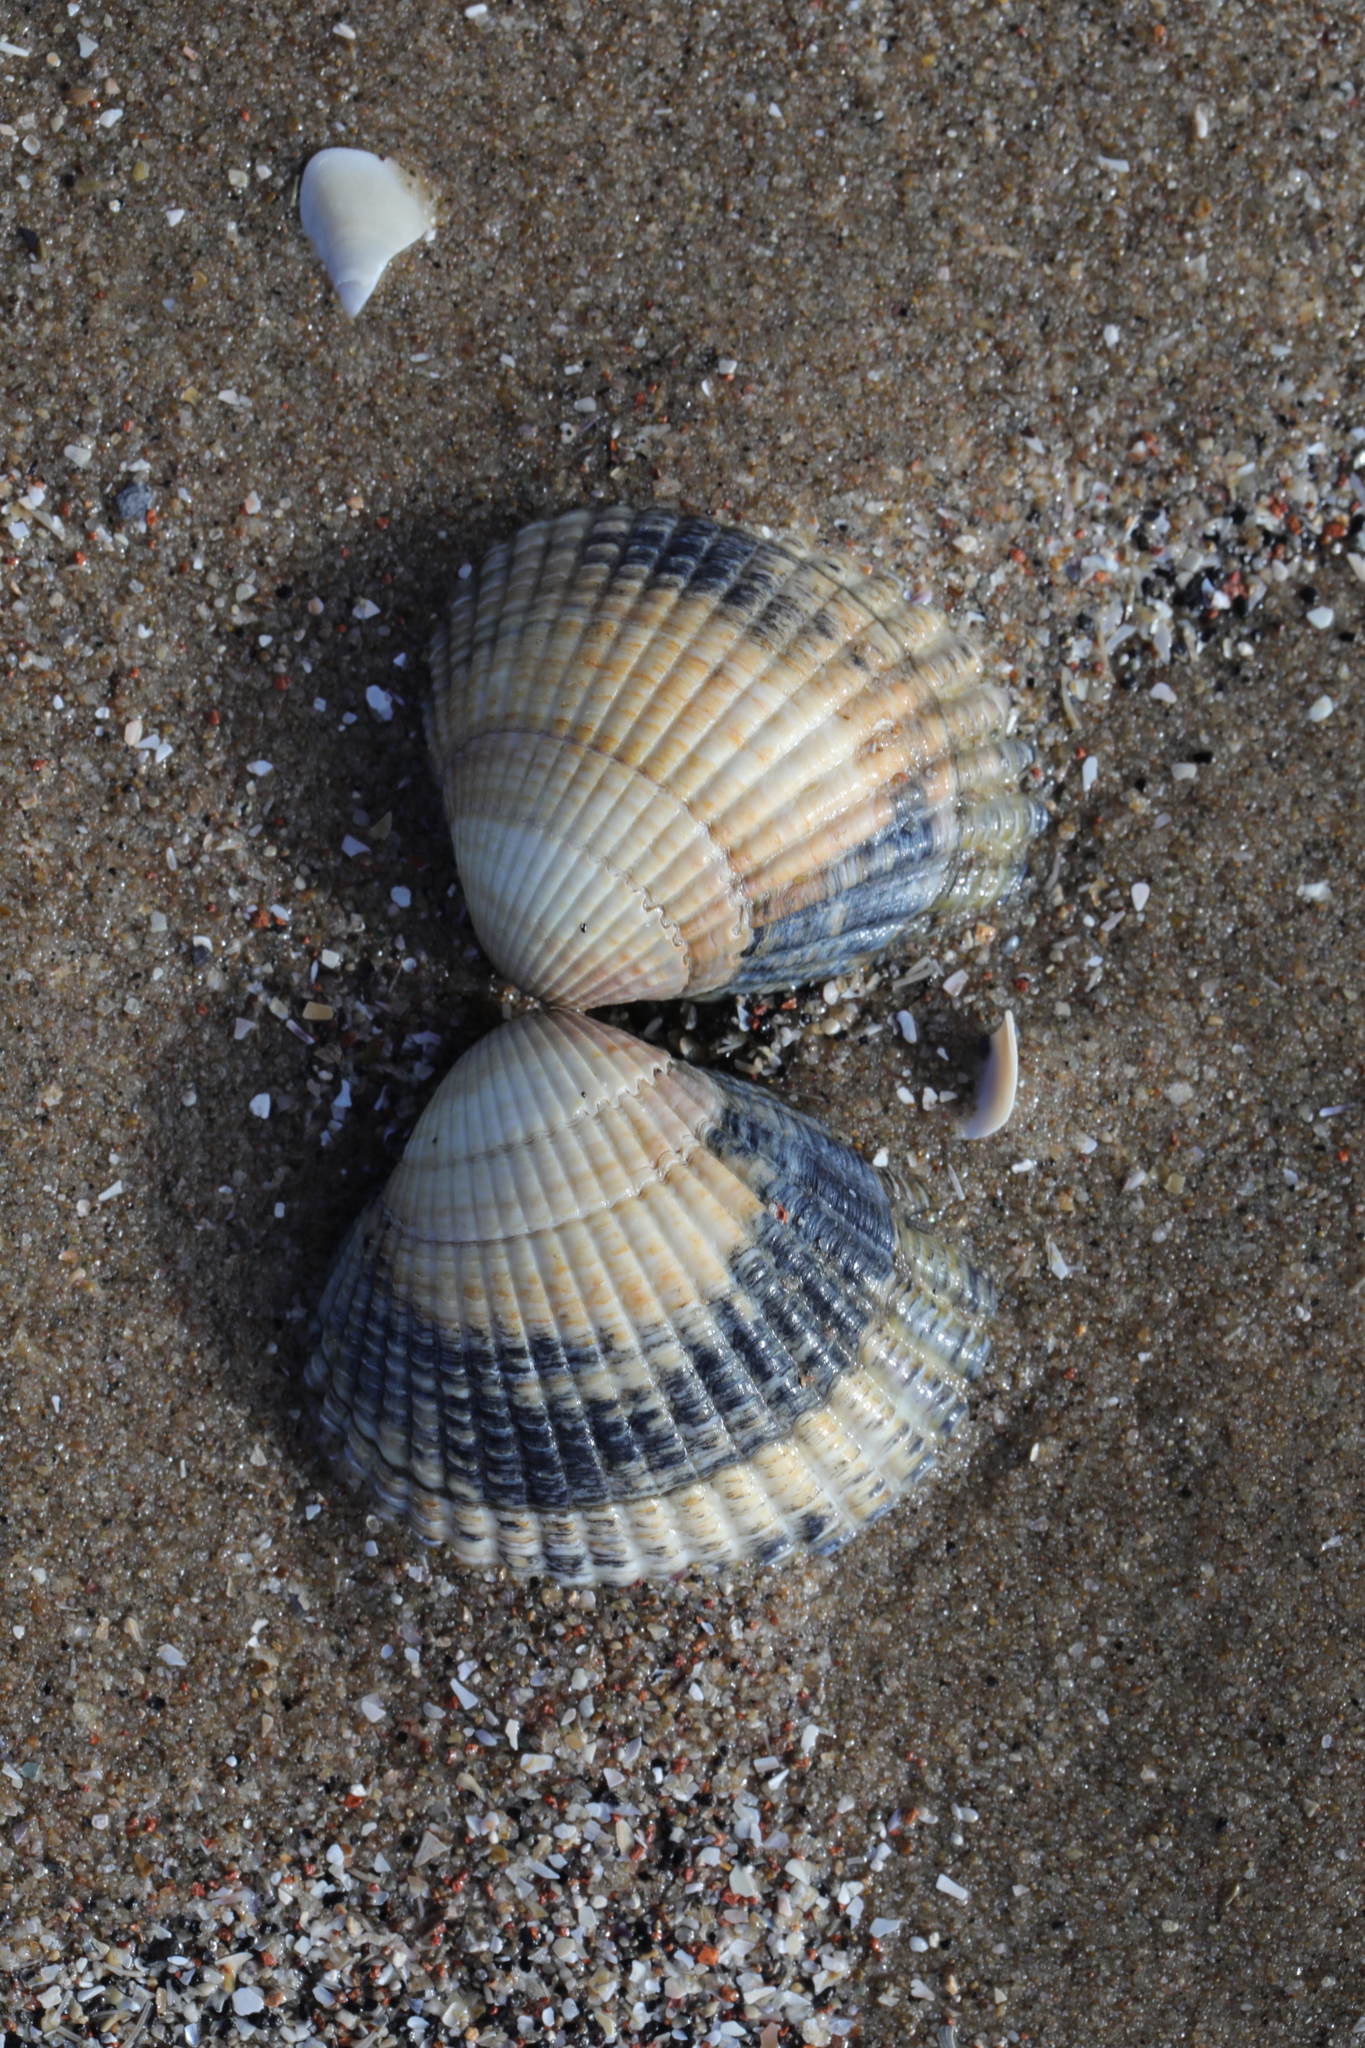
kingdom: Animalia
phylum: Mollusca
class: Bivalvia
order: Cardiida
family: Cardiidae
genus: Cerastoderma
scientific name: Cerastoderma edule
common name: Common cockle
